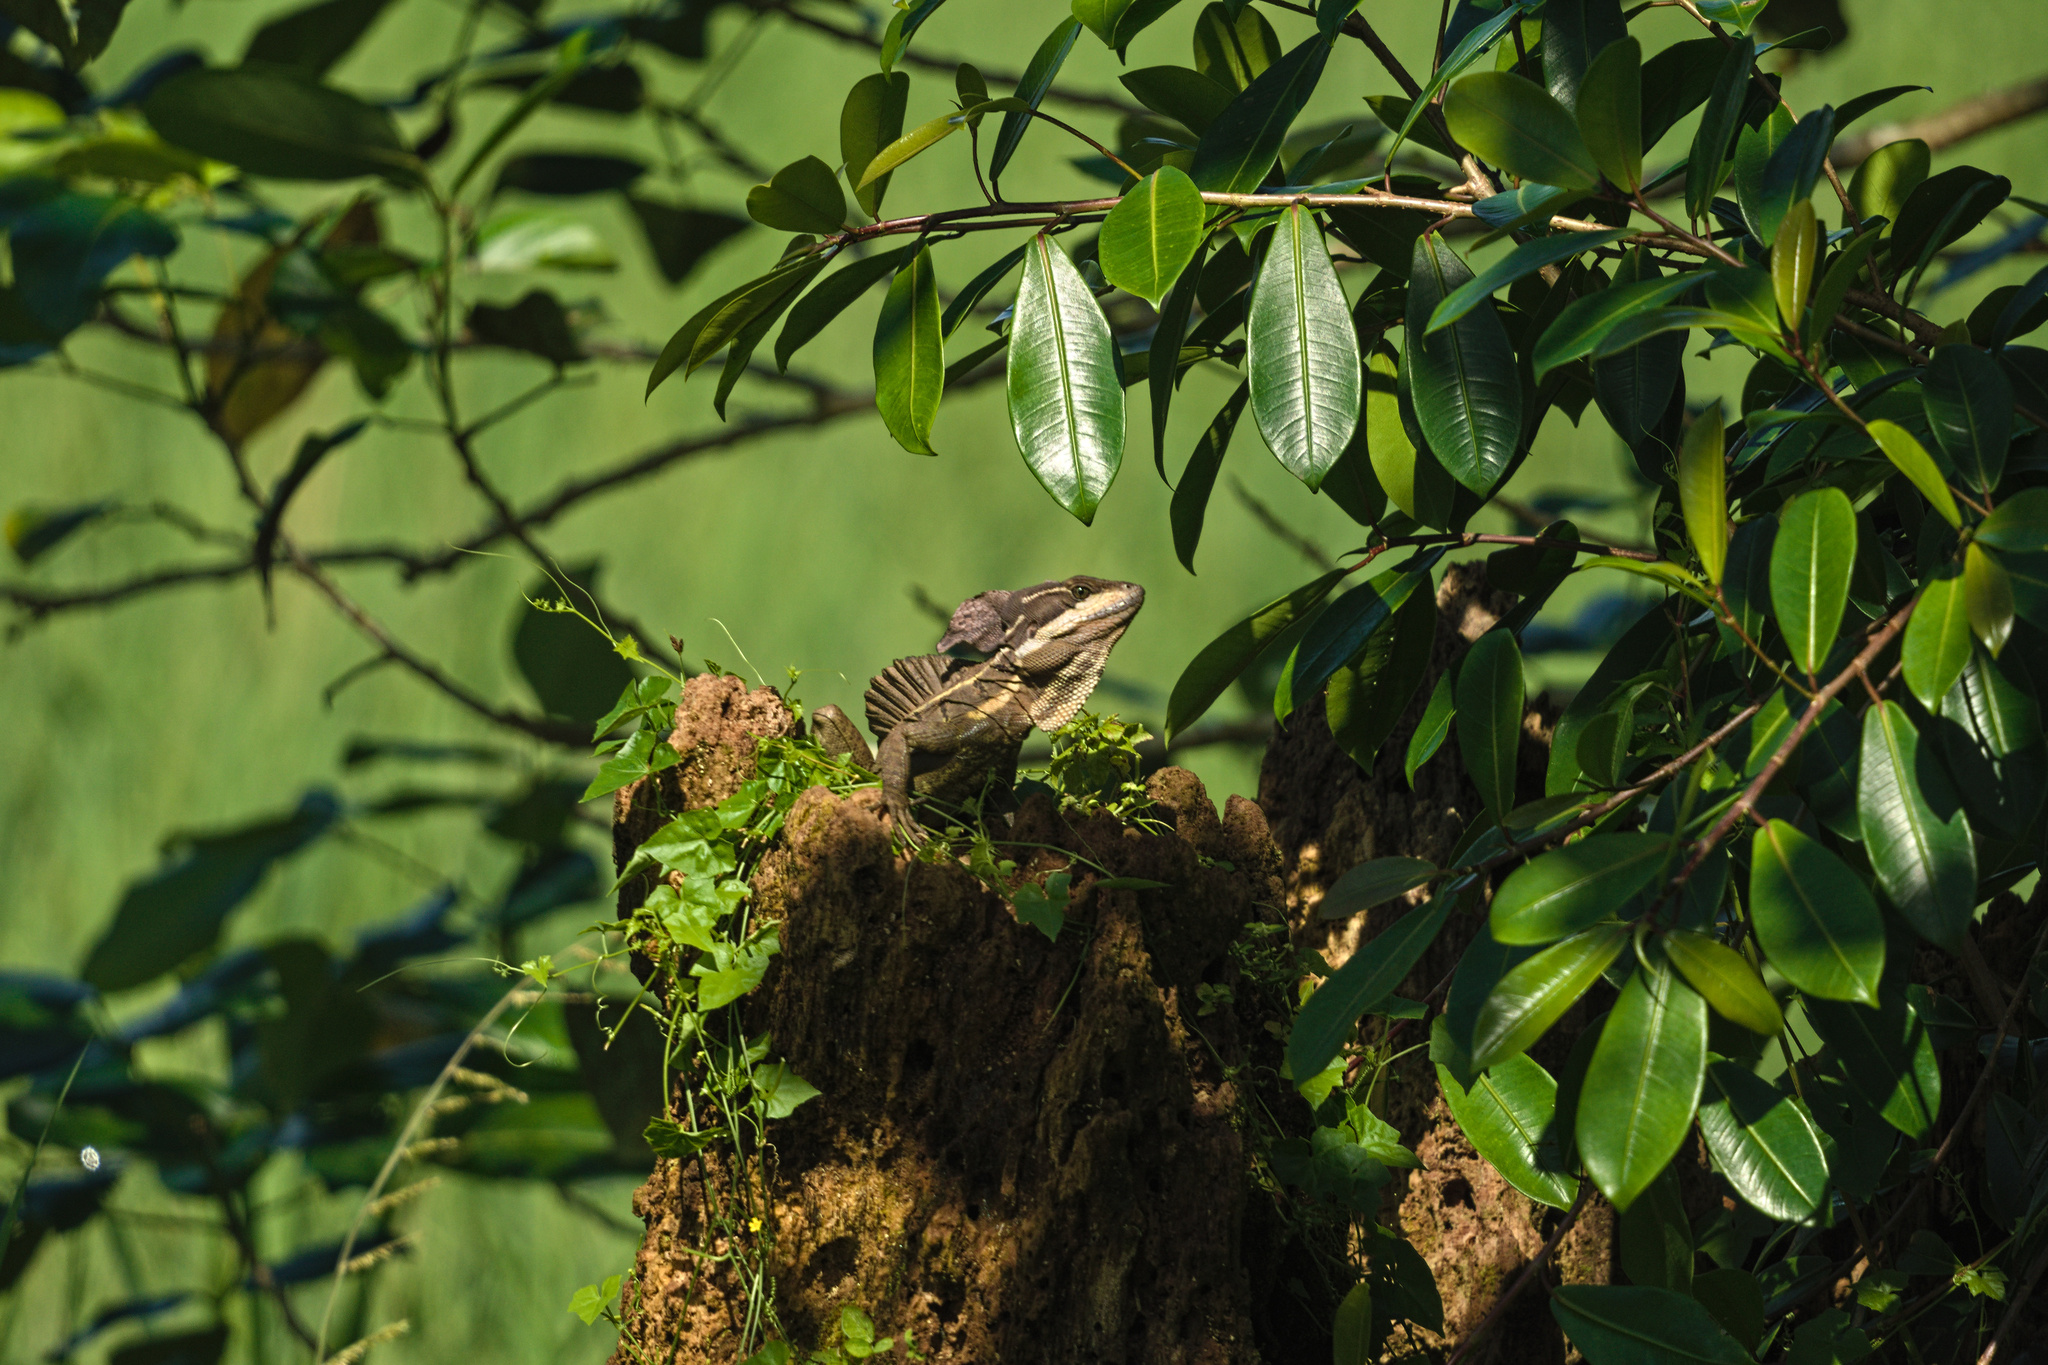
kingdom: Animalia
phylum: Chordata
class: Squamata
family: Corytophanidae
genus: Basiliscus
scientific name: Basiliscus basiliscus
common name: Common basilisk
